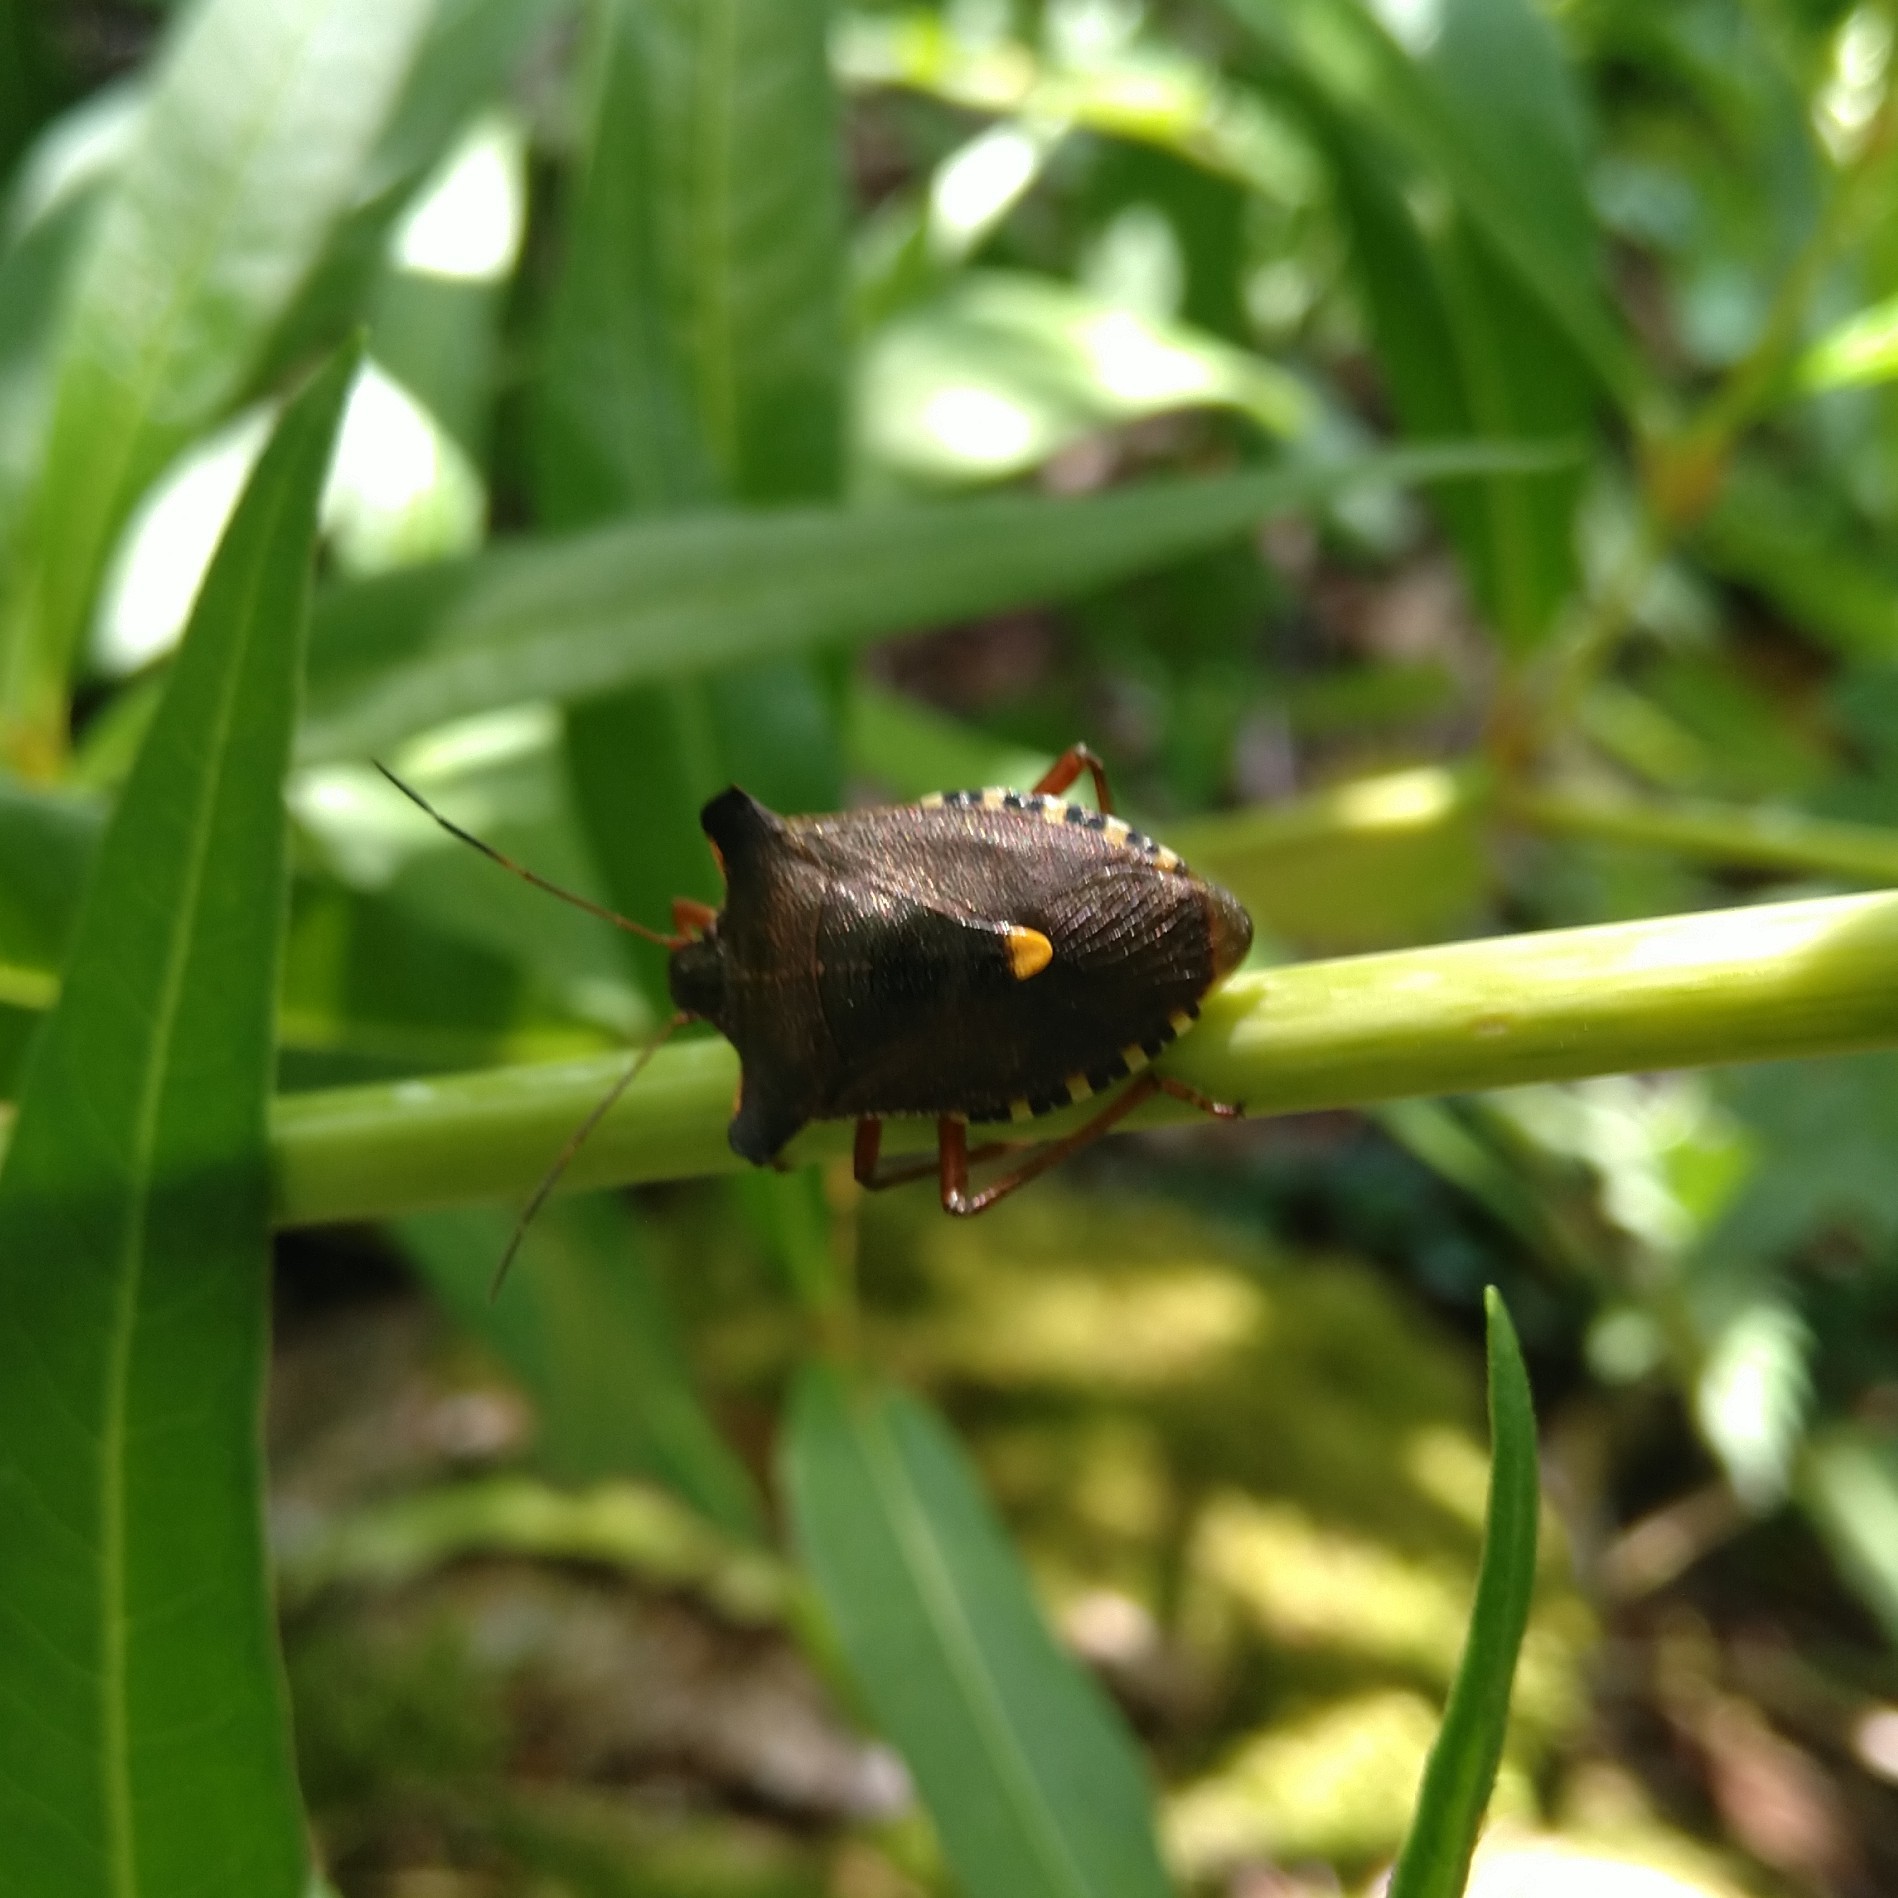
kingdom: Animalia
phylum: Arthropoda
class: Insecta
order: Hemiptera
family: Pentatomidae
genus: Pentatoma
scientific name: Pentatoma rufipes
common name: Forest bug
